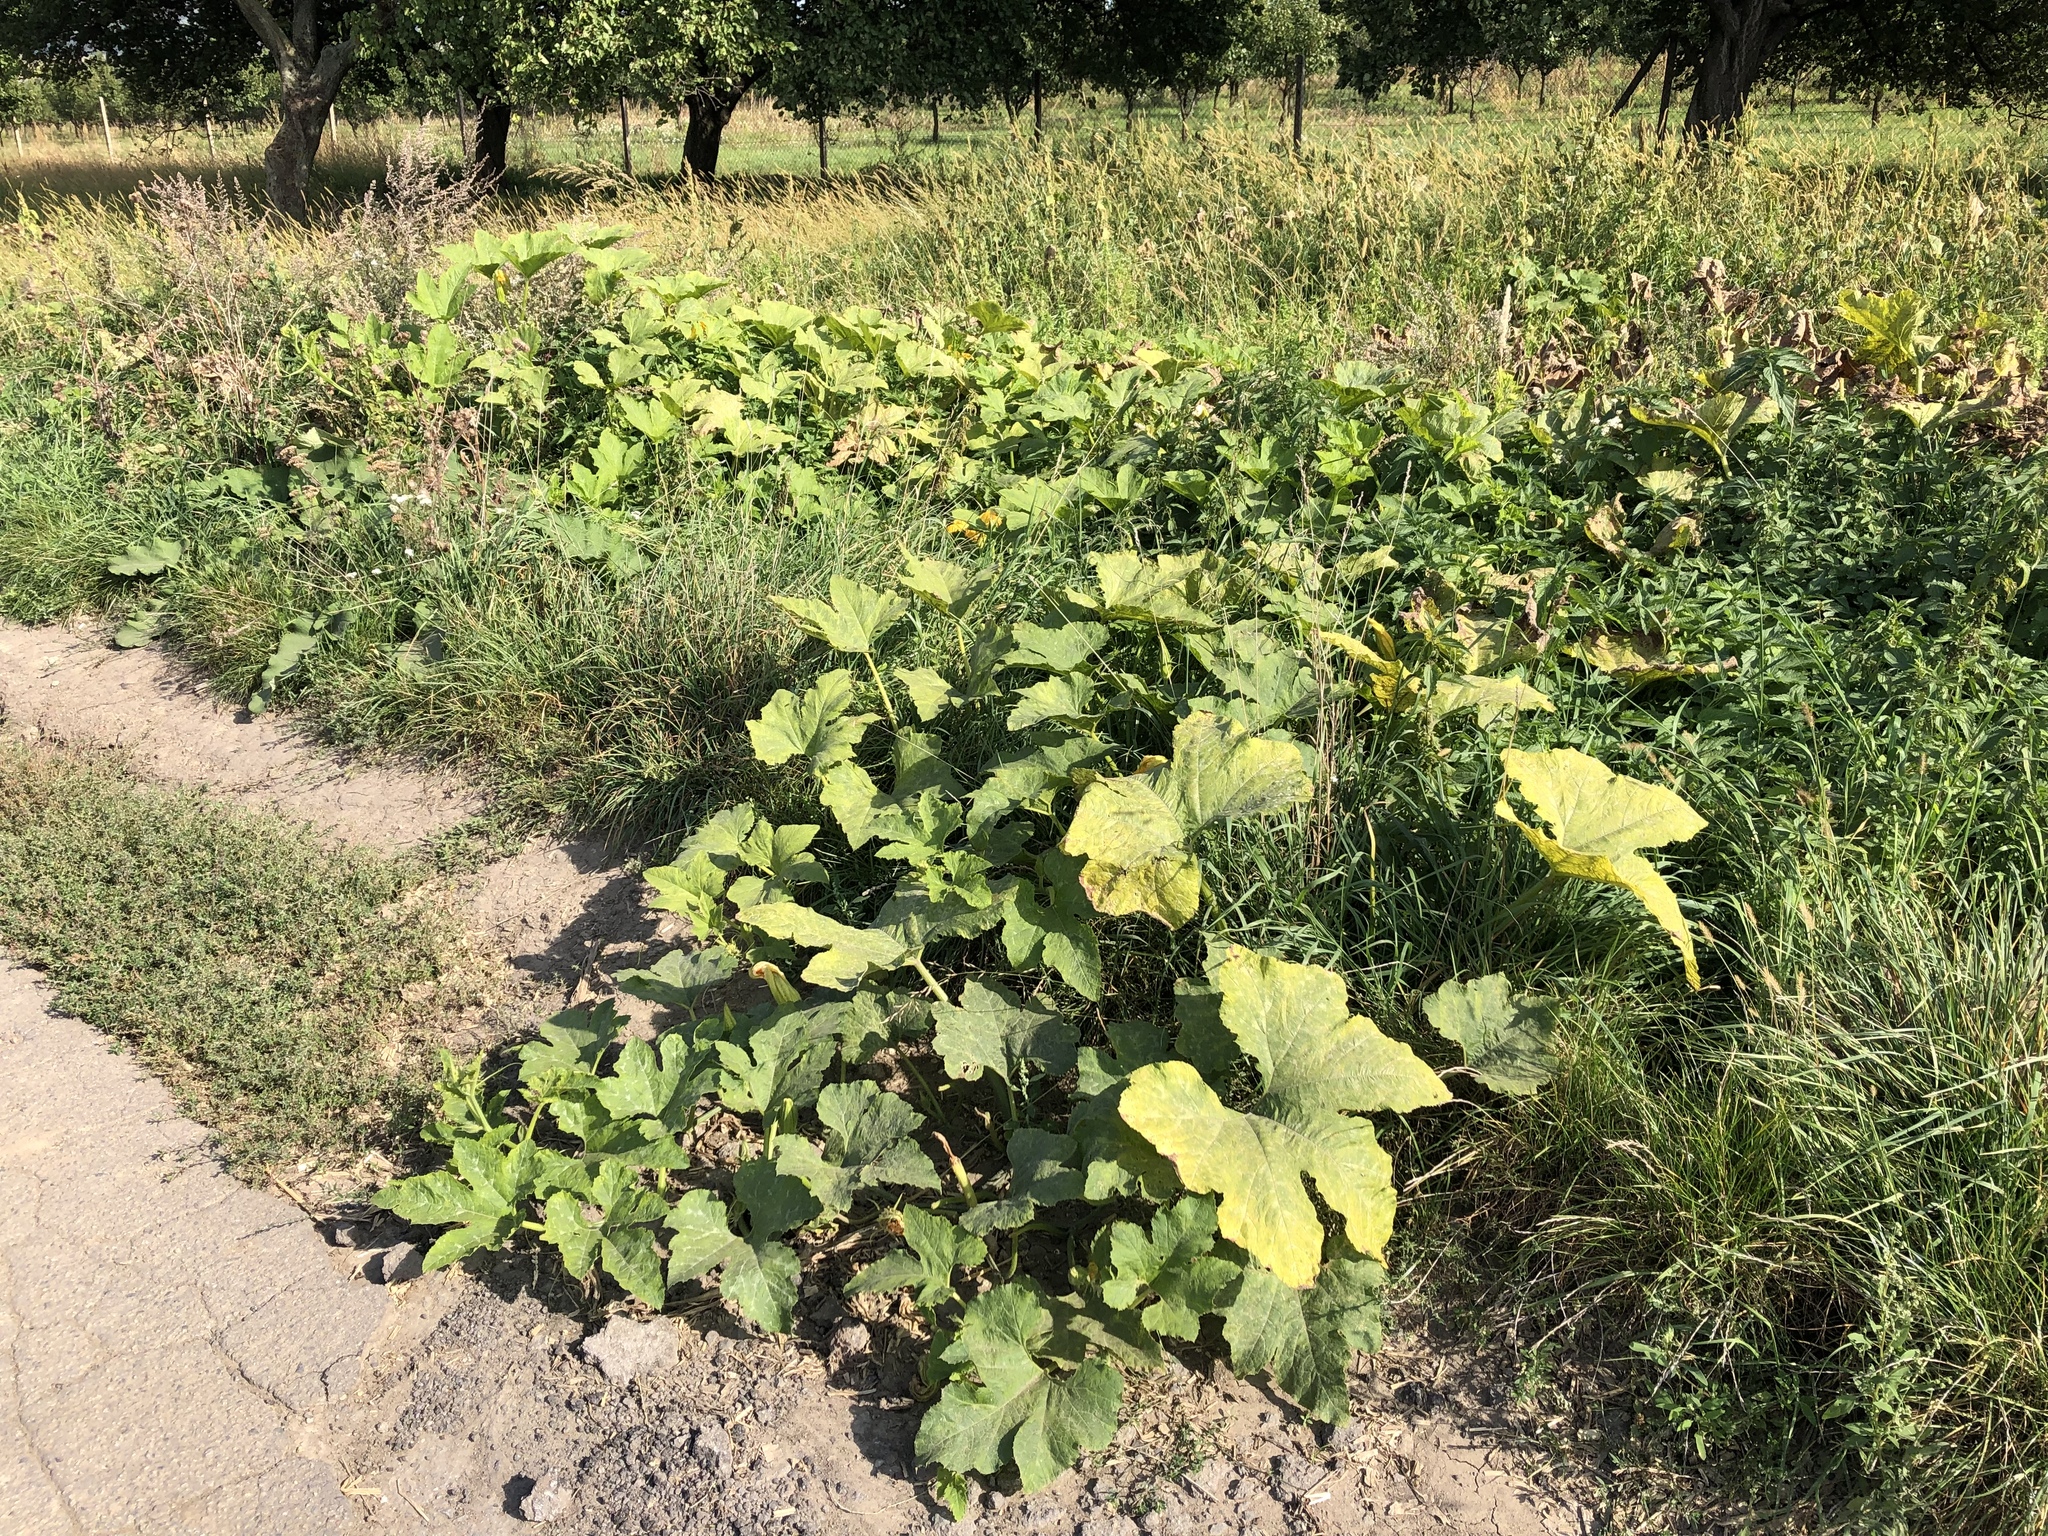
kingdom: Plantae
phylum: Tracheophyta
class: Magnoliopsida
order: Cucurbitales
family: Cucurbitaceae
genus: Cucurbita
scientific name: Cucurbita pepo
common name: Marrow
